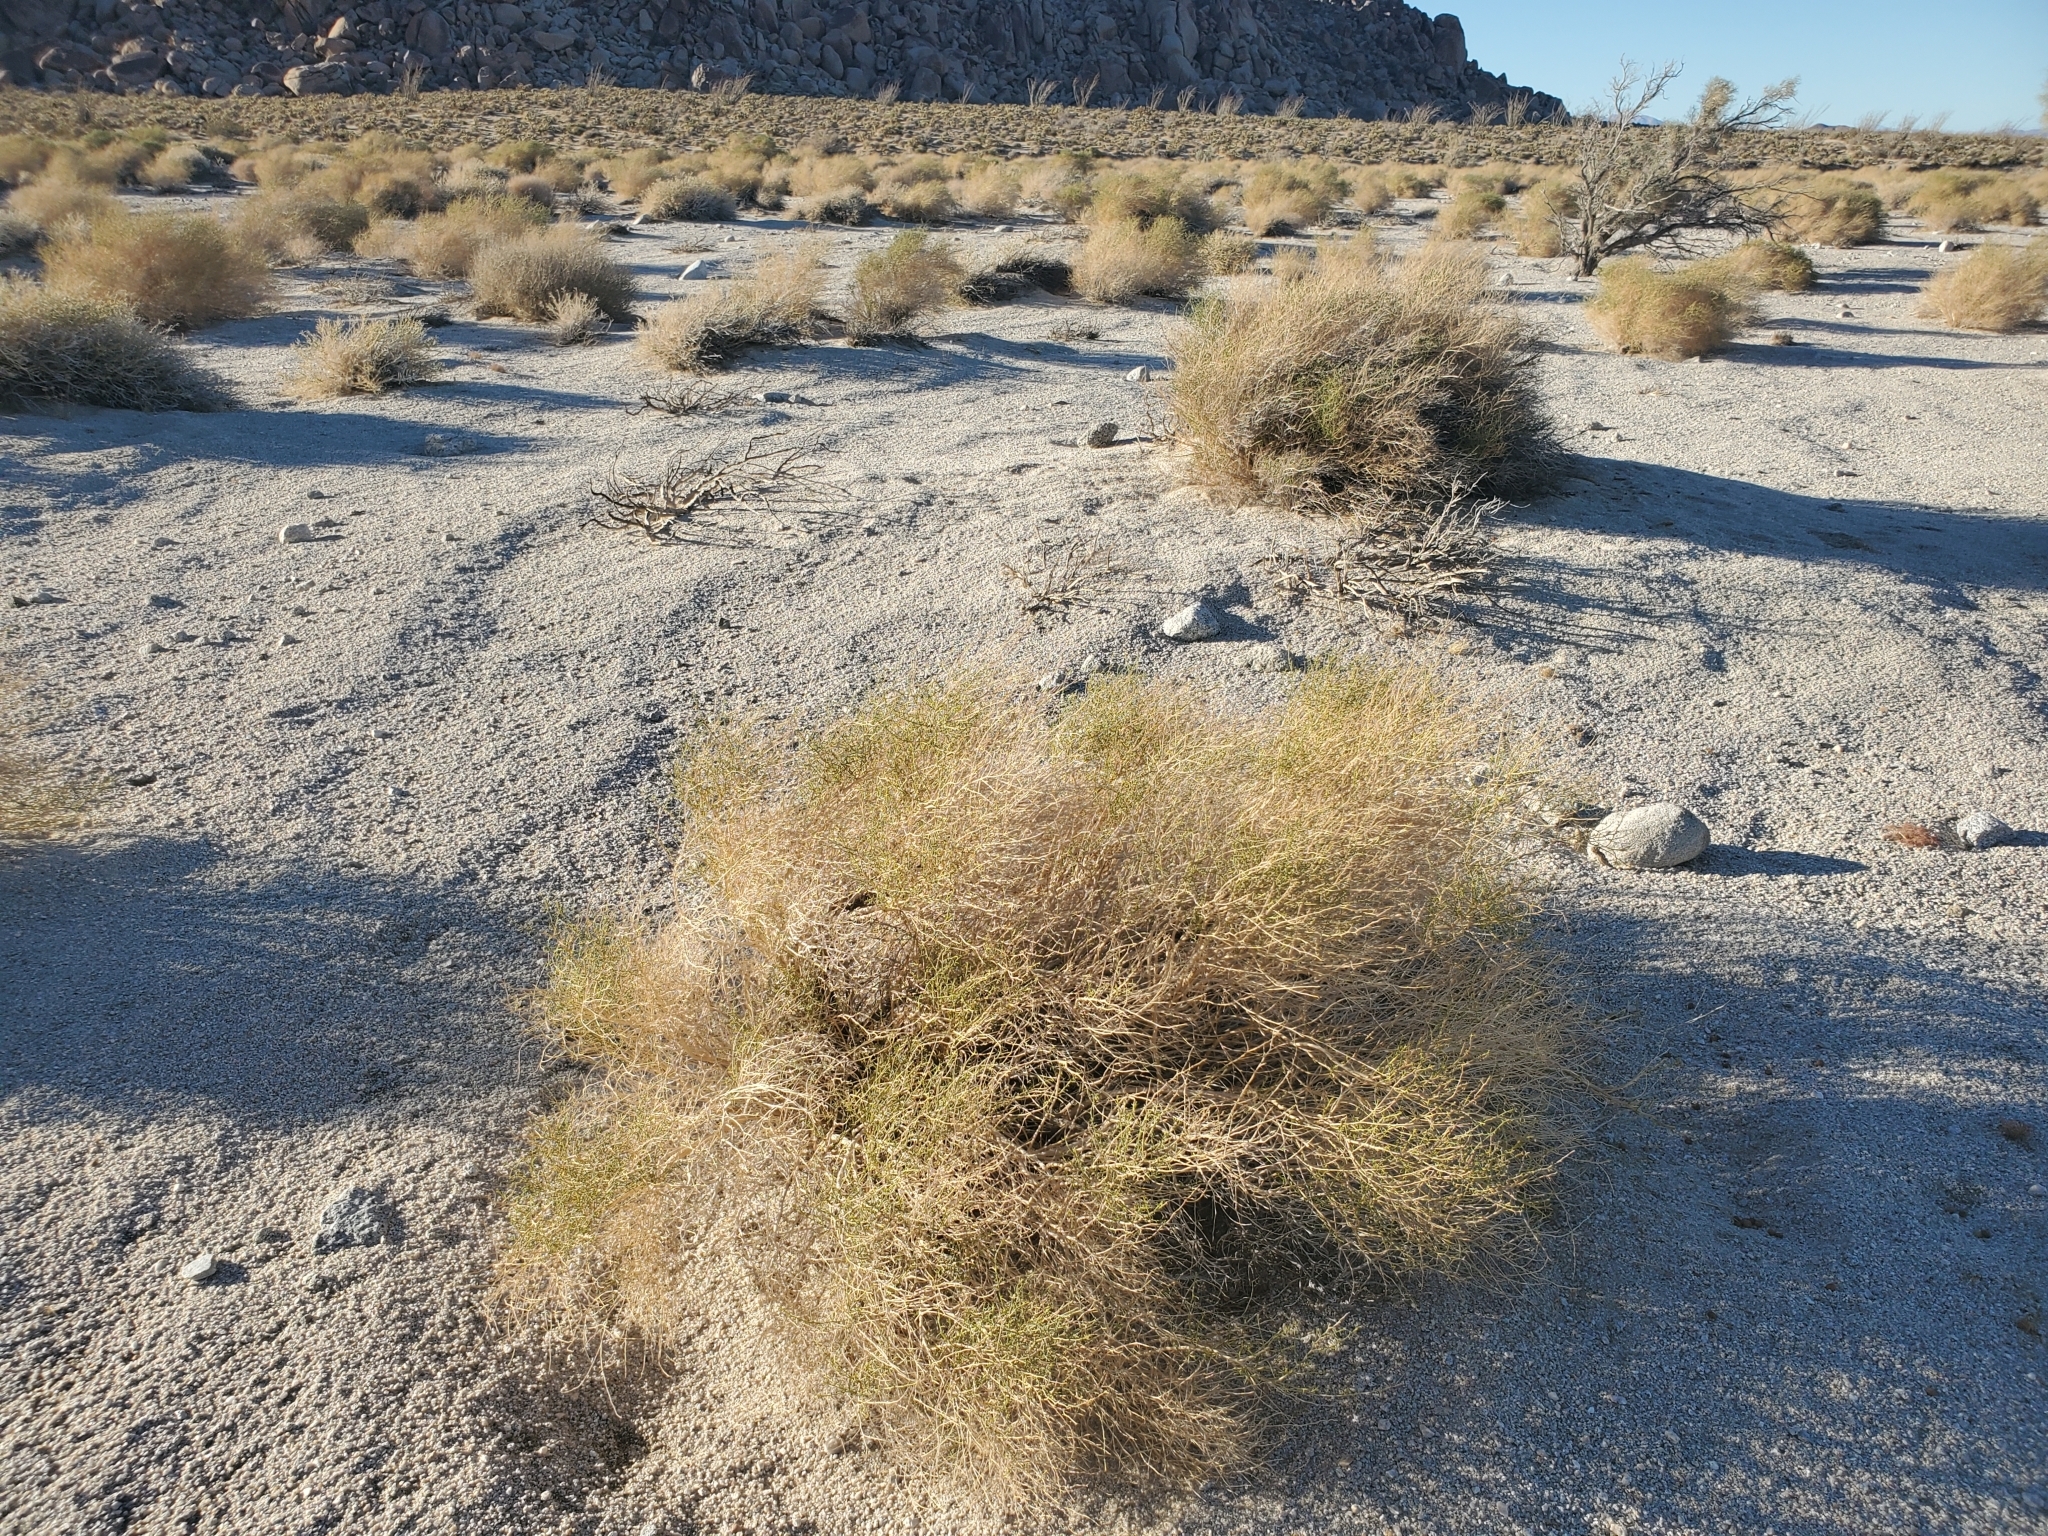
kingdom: Plantae
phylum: Tracheophyta
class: Magnoliopsida
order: Asterales
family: Asteraceae
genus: Ambrosia
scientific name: Ambrosia salsola
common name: Burrobrush
